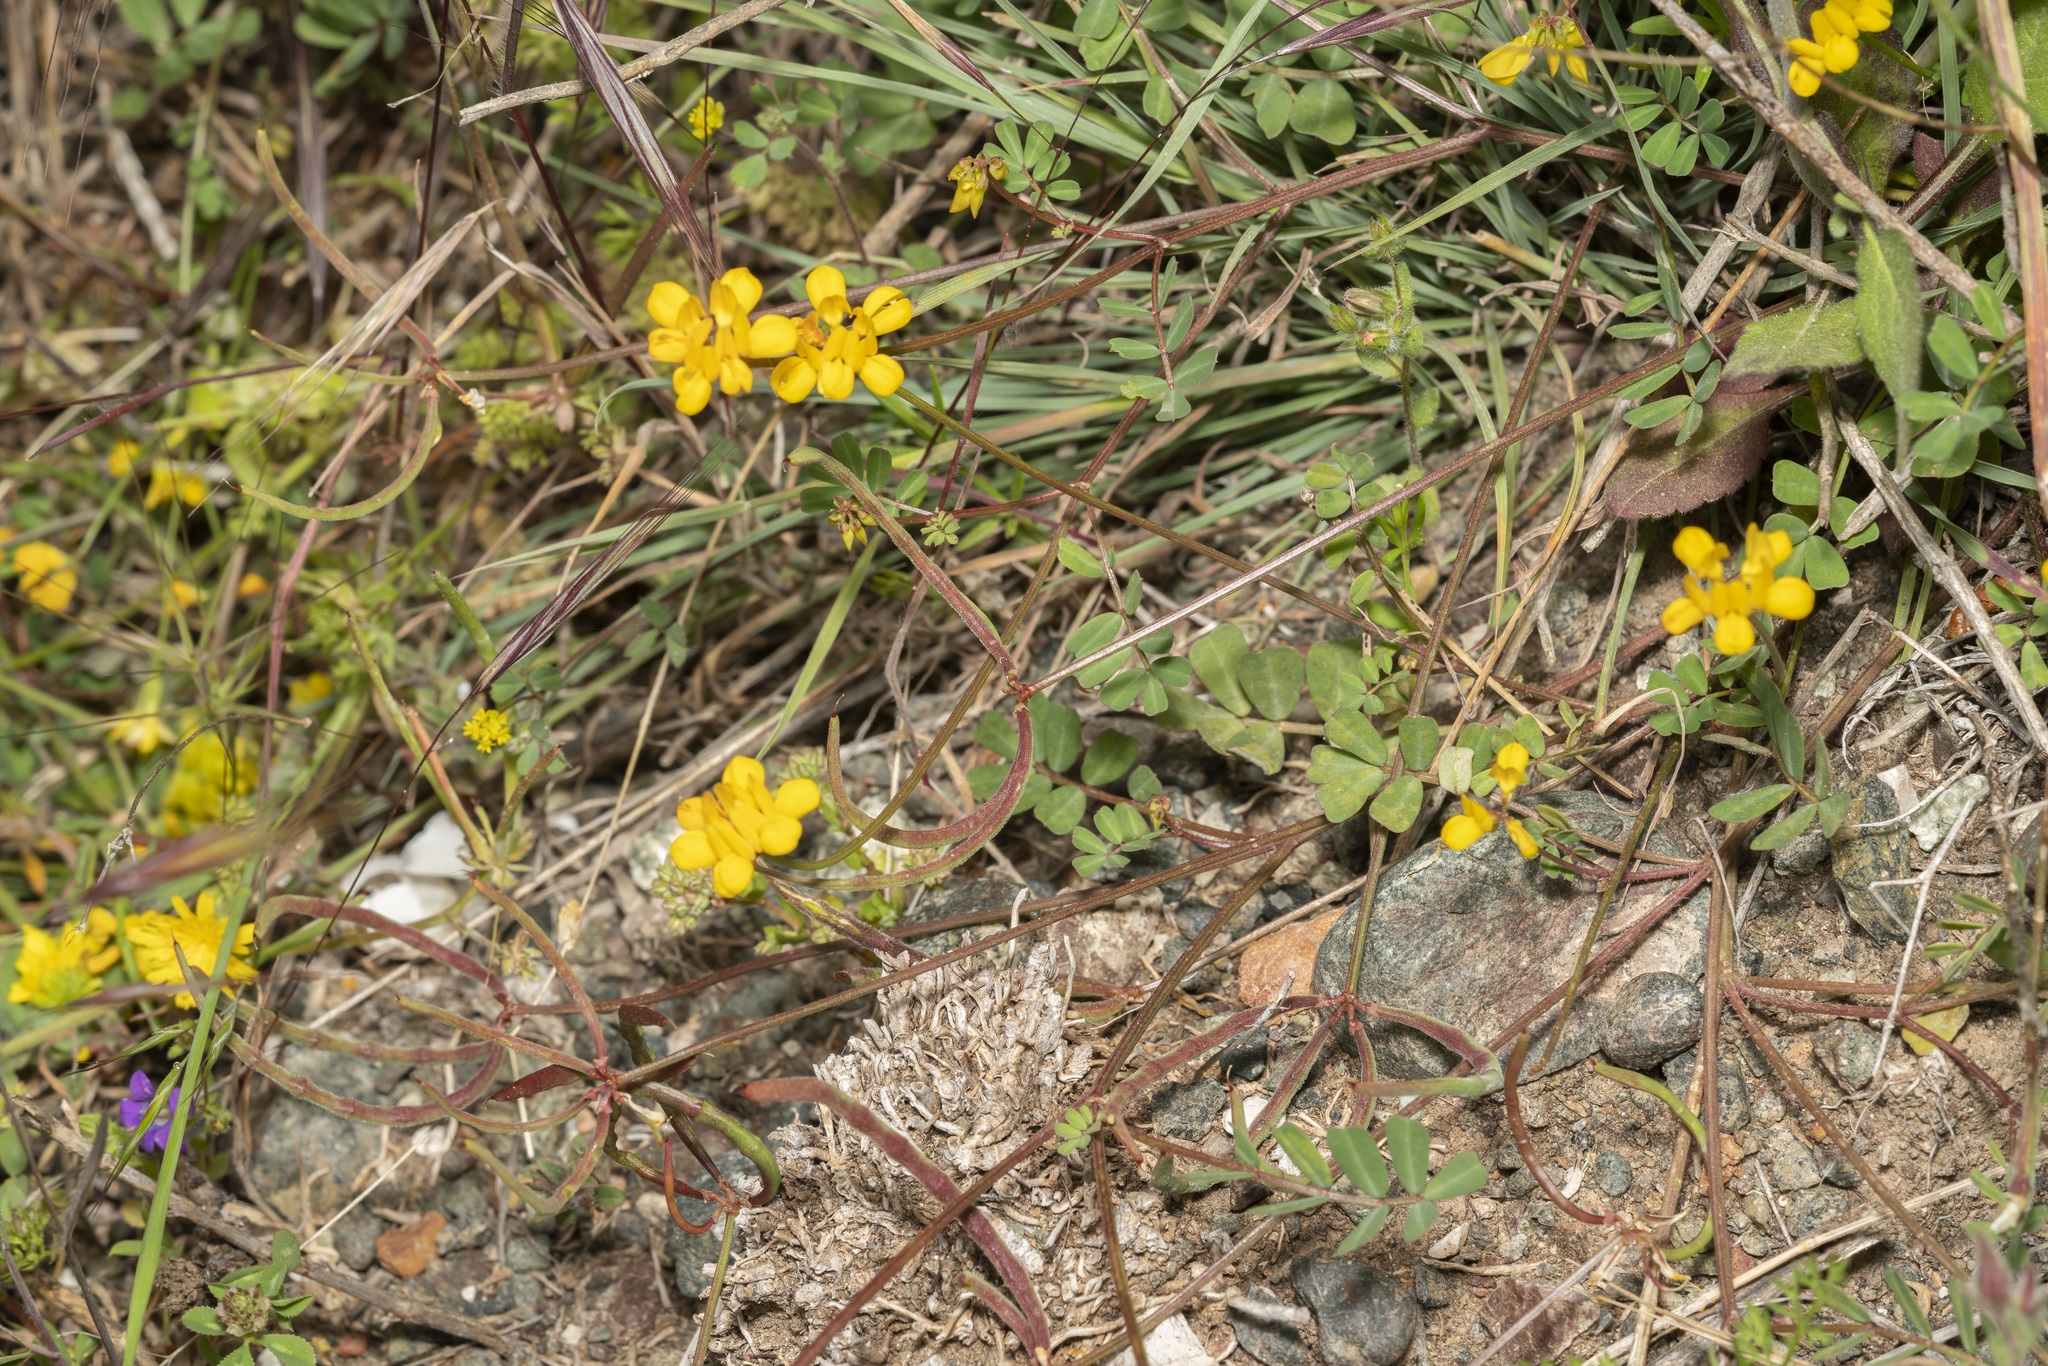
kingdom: Plantae
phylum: Tracheophyta
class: Magnoliopsida
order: Fabales
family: Fabaceae
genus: Coronilla
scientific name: Coronilla rostrata
